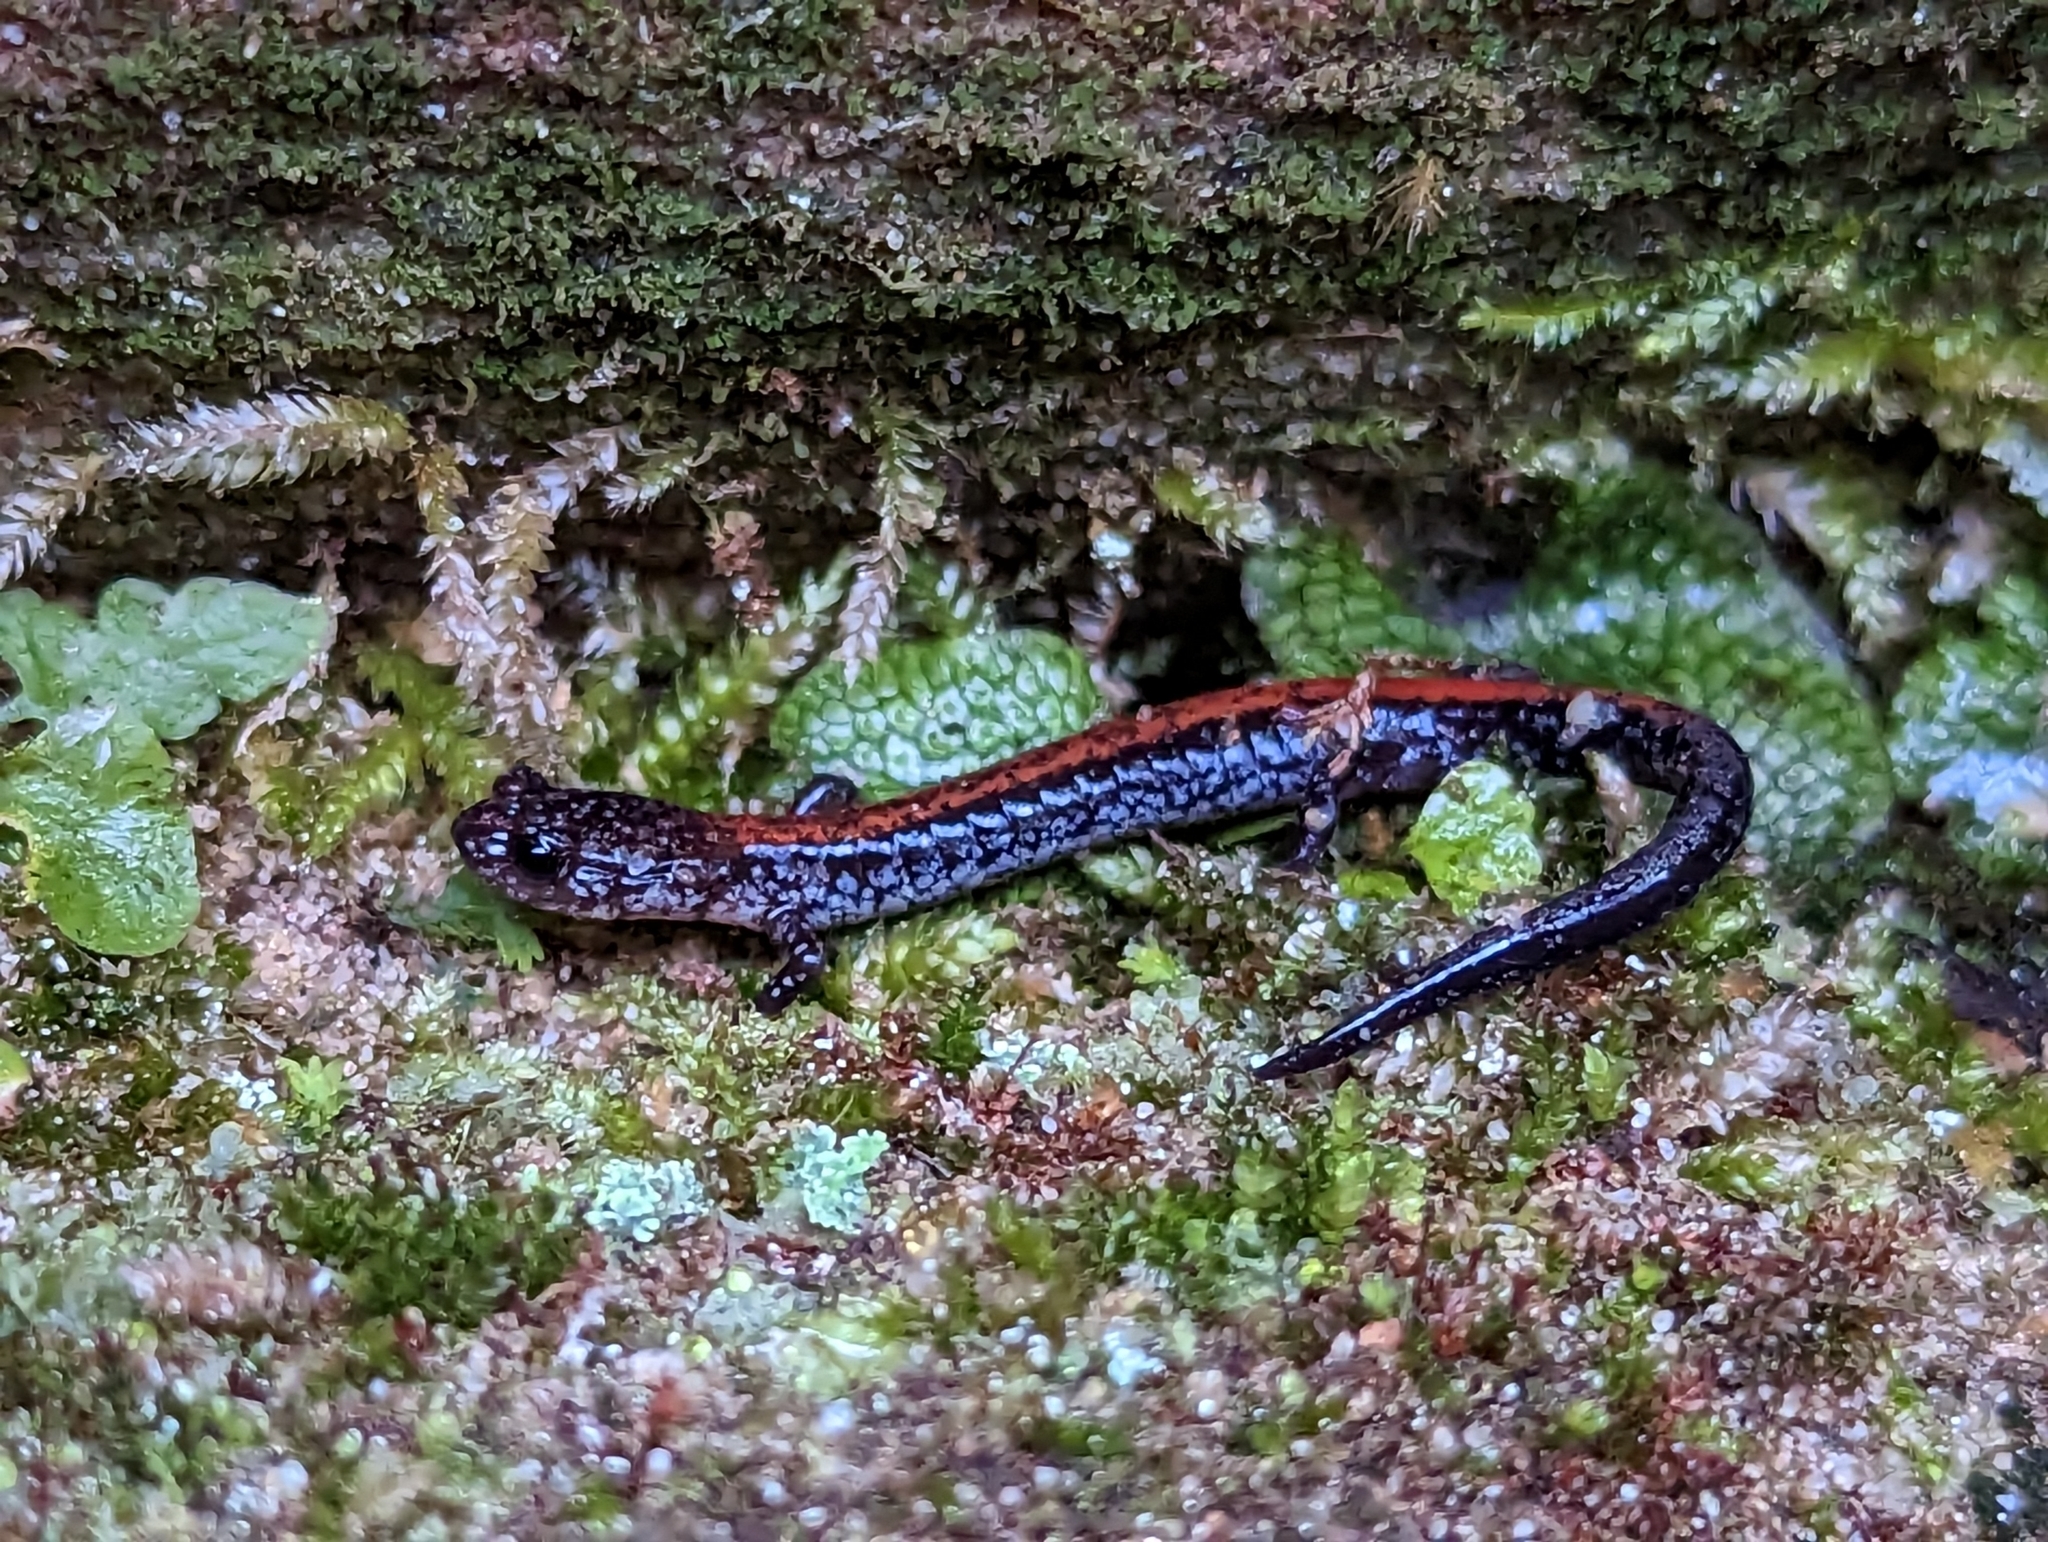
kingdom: Animalia
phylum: Chordata
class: Amphibia
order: Caudata
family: Plethodontidae
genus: Plethodon
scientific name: Plethodon cinereus
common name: Redback salamander
